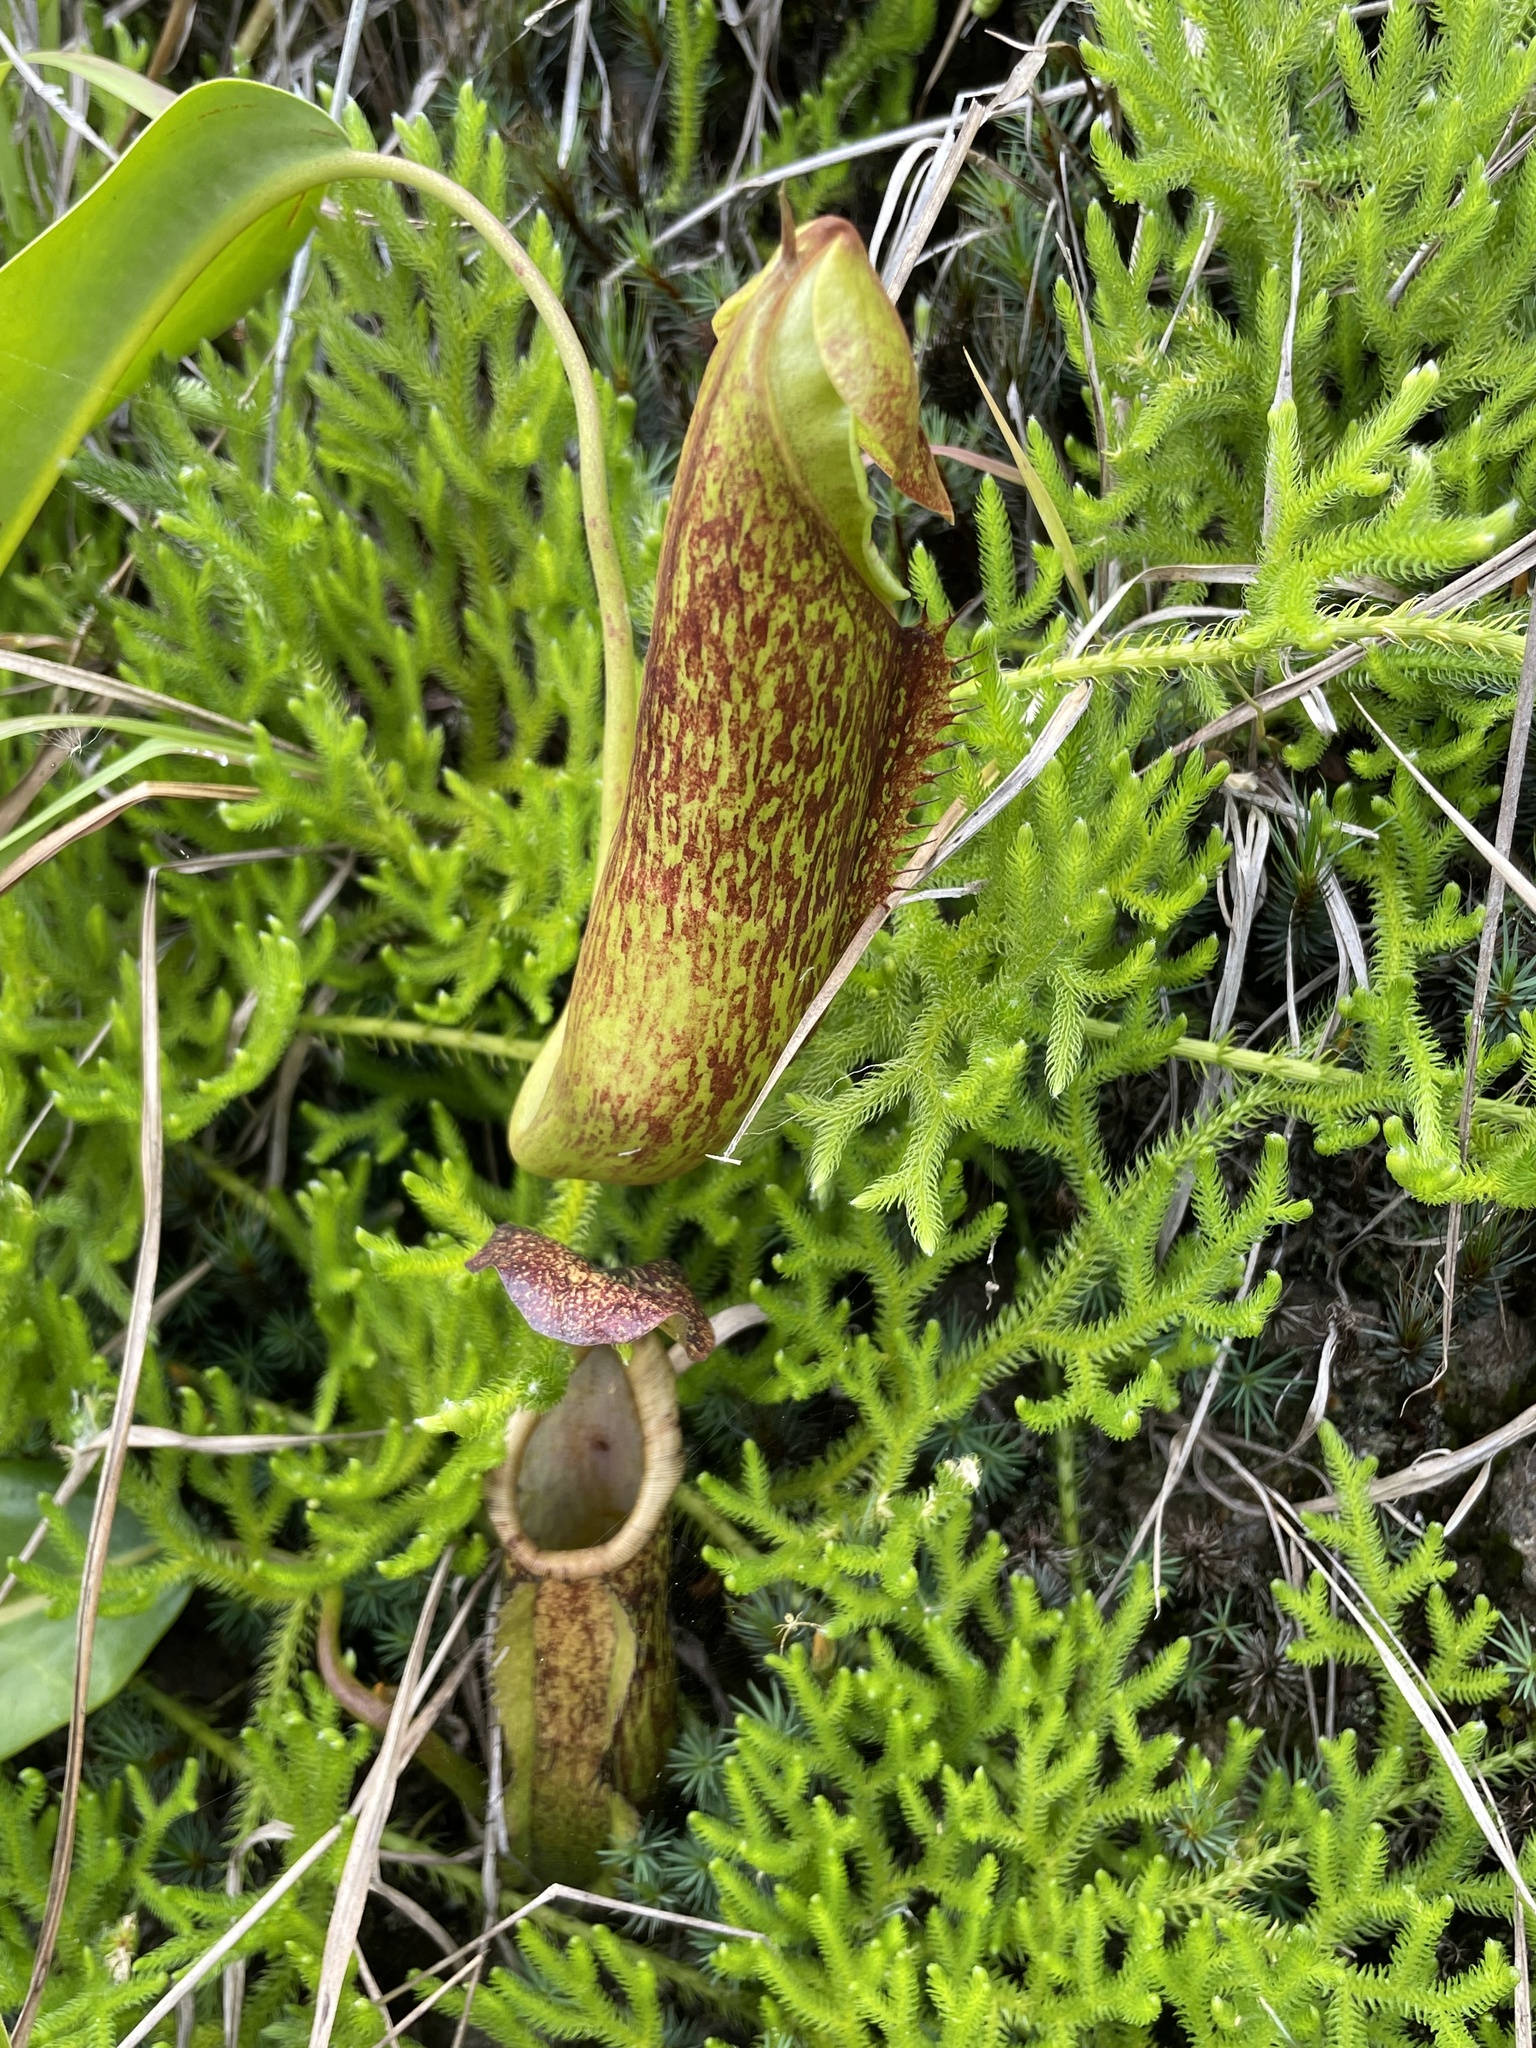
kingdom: Plantae
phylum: Tracheophyta
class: Magnoliopsida
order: Caryophyllales
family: Nepenthaceae
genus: Nepenthes
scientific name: Nepenthes maxima
